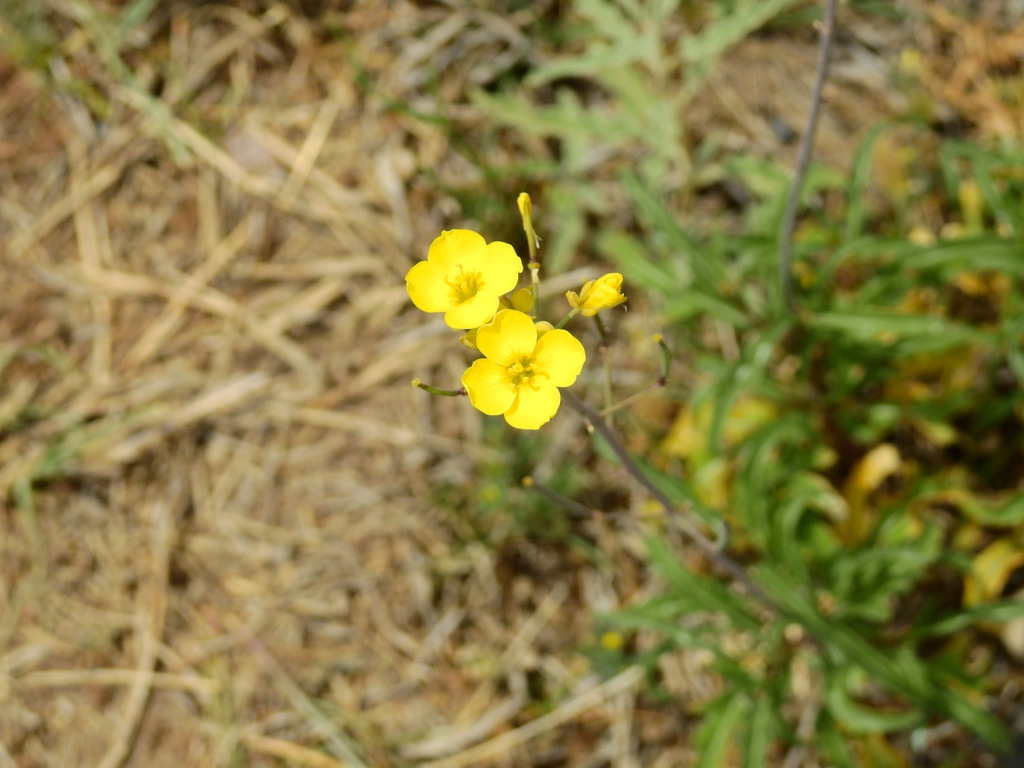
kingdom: Plantae
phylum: Tracheophyta
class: Magnoliopsida
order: Brassicales
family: Brassicaceae
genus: Diplotaxis
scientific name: Diplotaxis tenuifolia
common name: Perennial wall-rocket
